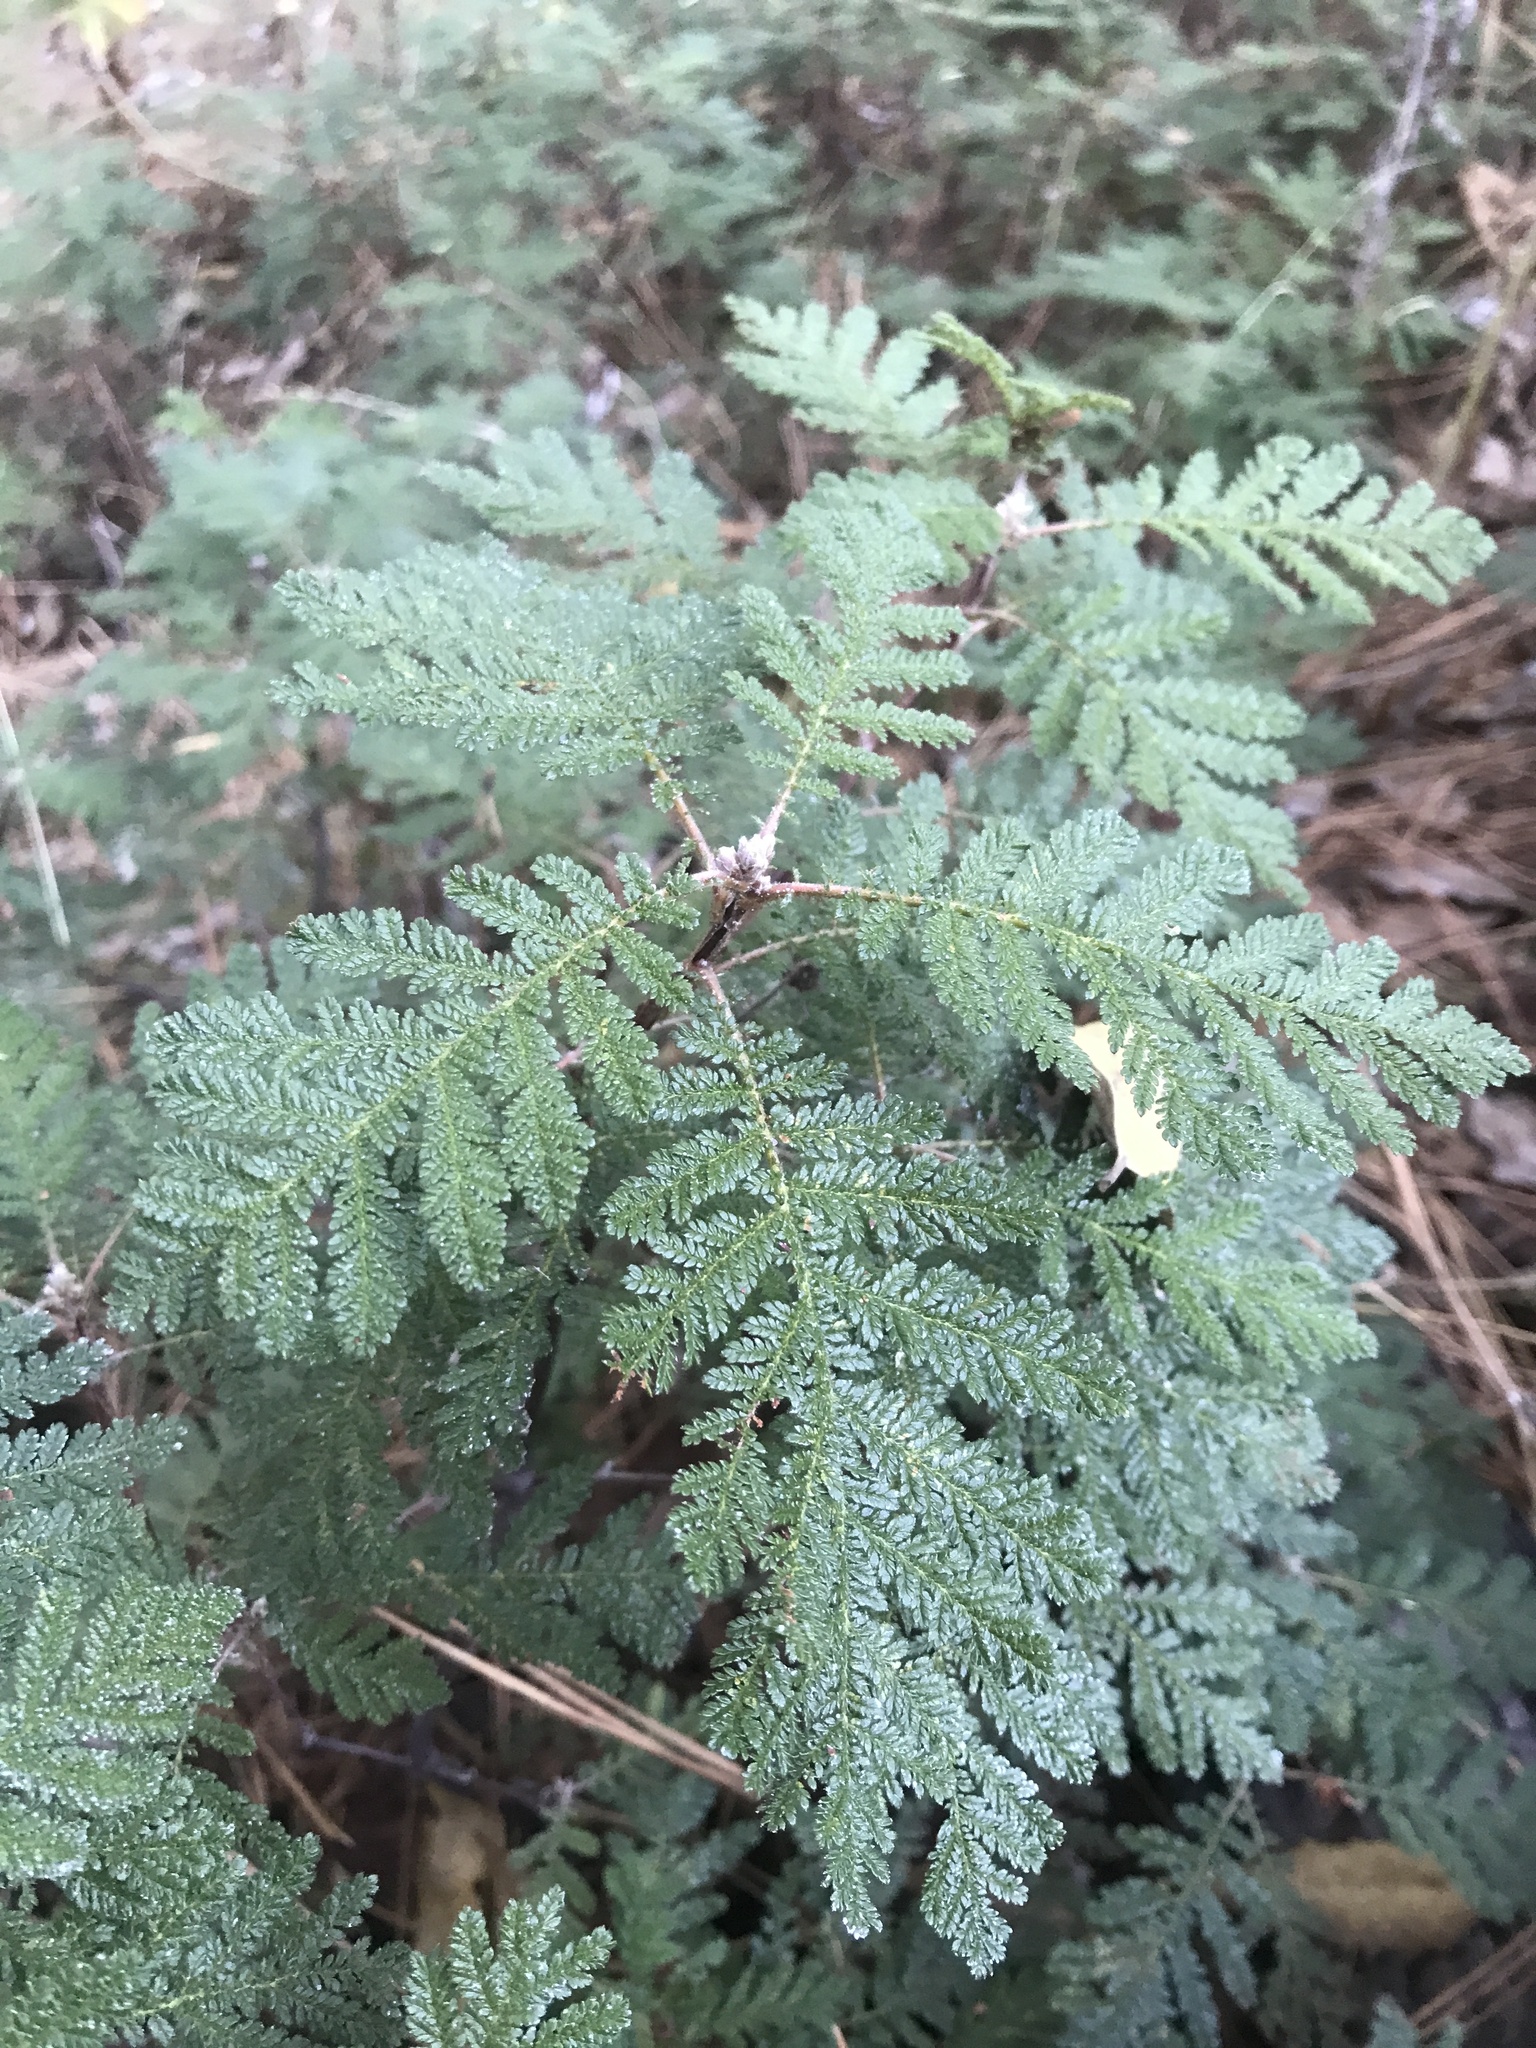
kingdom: Plantae
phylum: Tracheophyta
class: Magnoliopsida
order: Rosales
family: Rosaceae
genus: Chamaebatia
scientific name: Chamaebatia foliolosa
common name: Mountain misery
